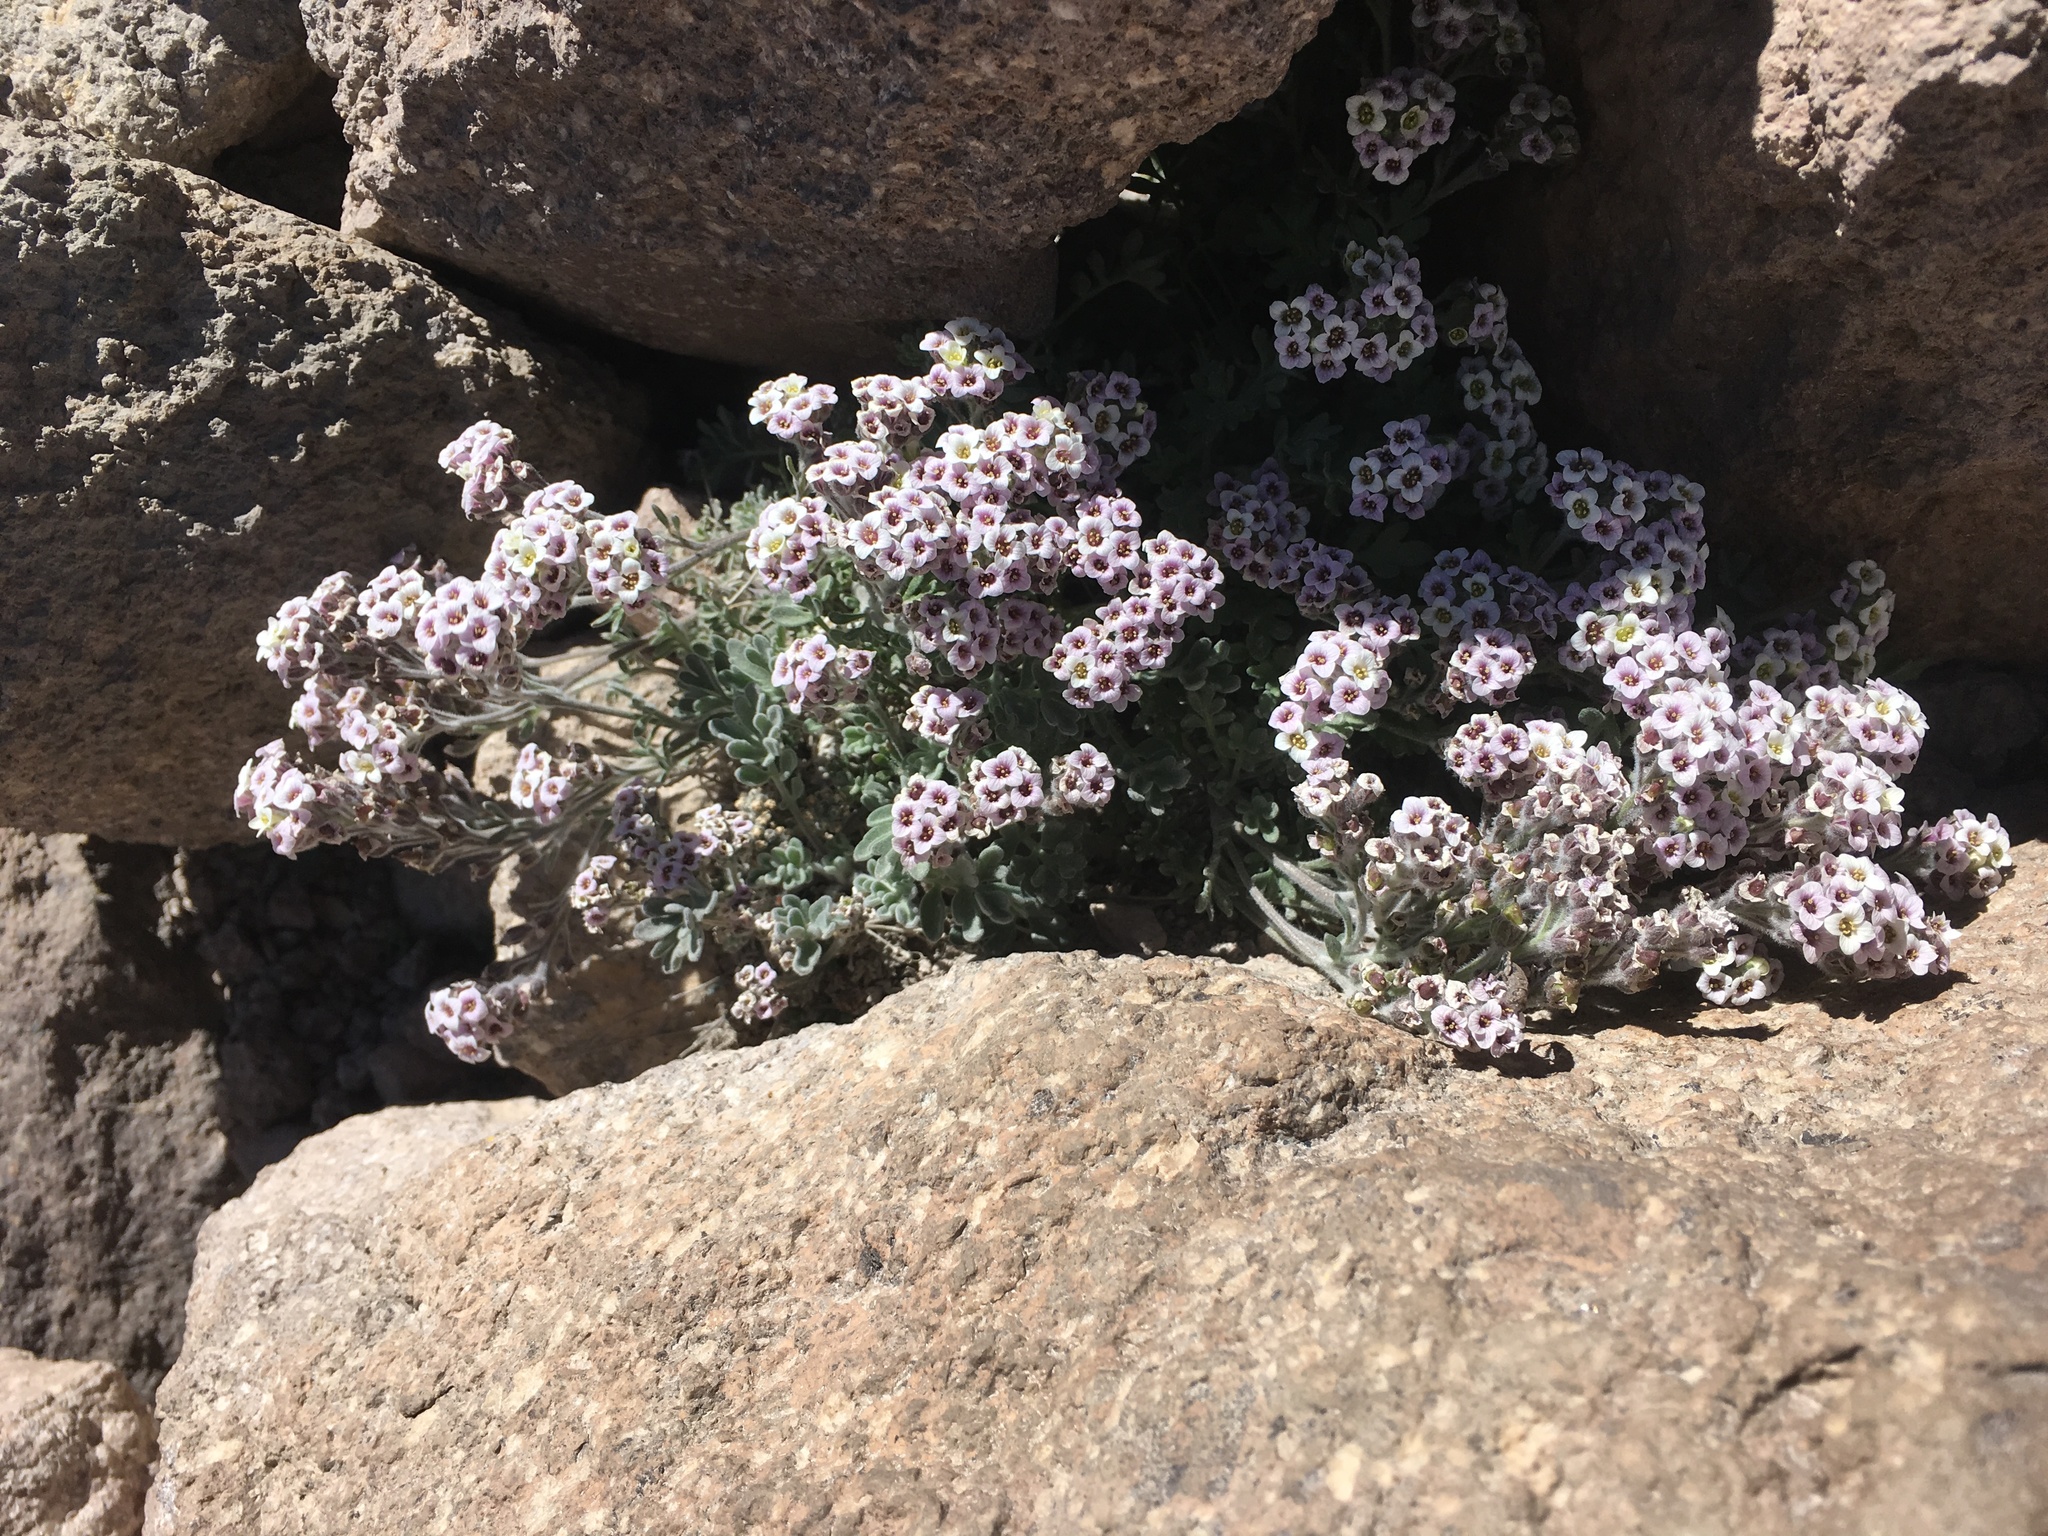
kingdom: Plantae
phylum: Tracheophyta
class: Magnoliopsida
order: Brassicales
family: Brassicaceae
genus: Smelowskia
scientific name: Smelowskia ovalis
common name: Alpine false candytuft
